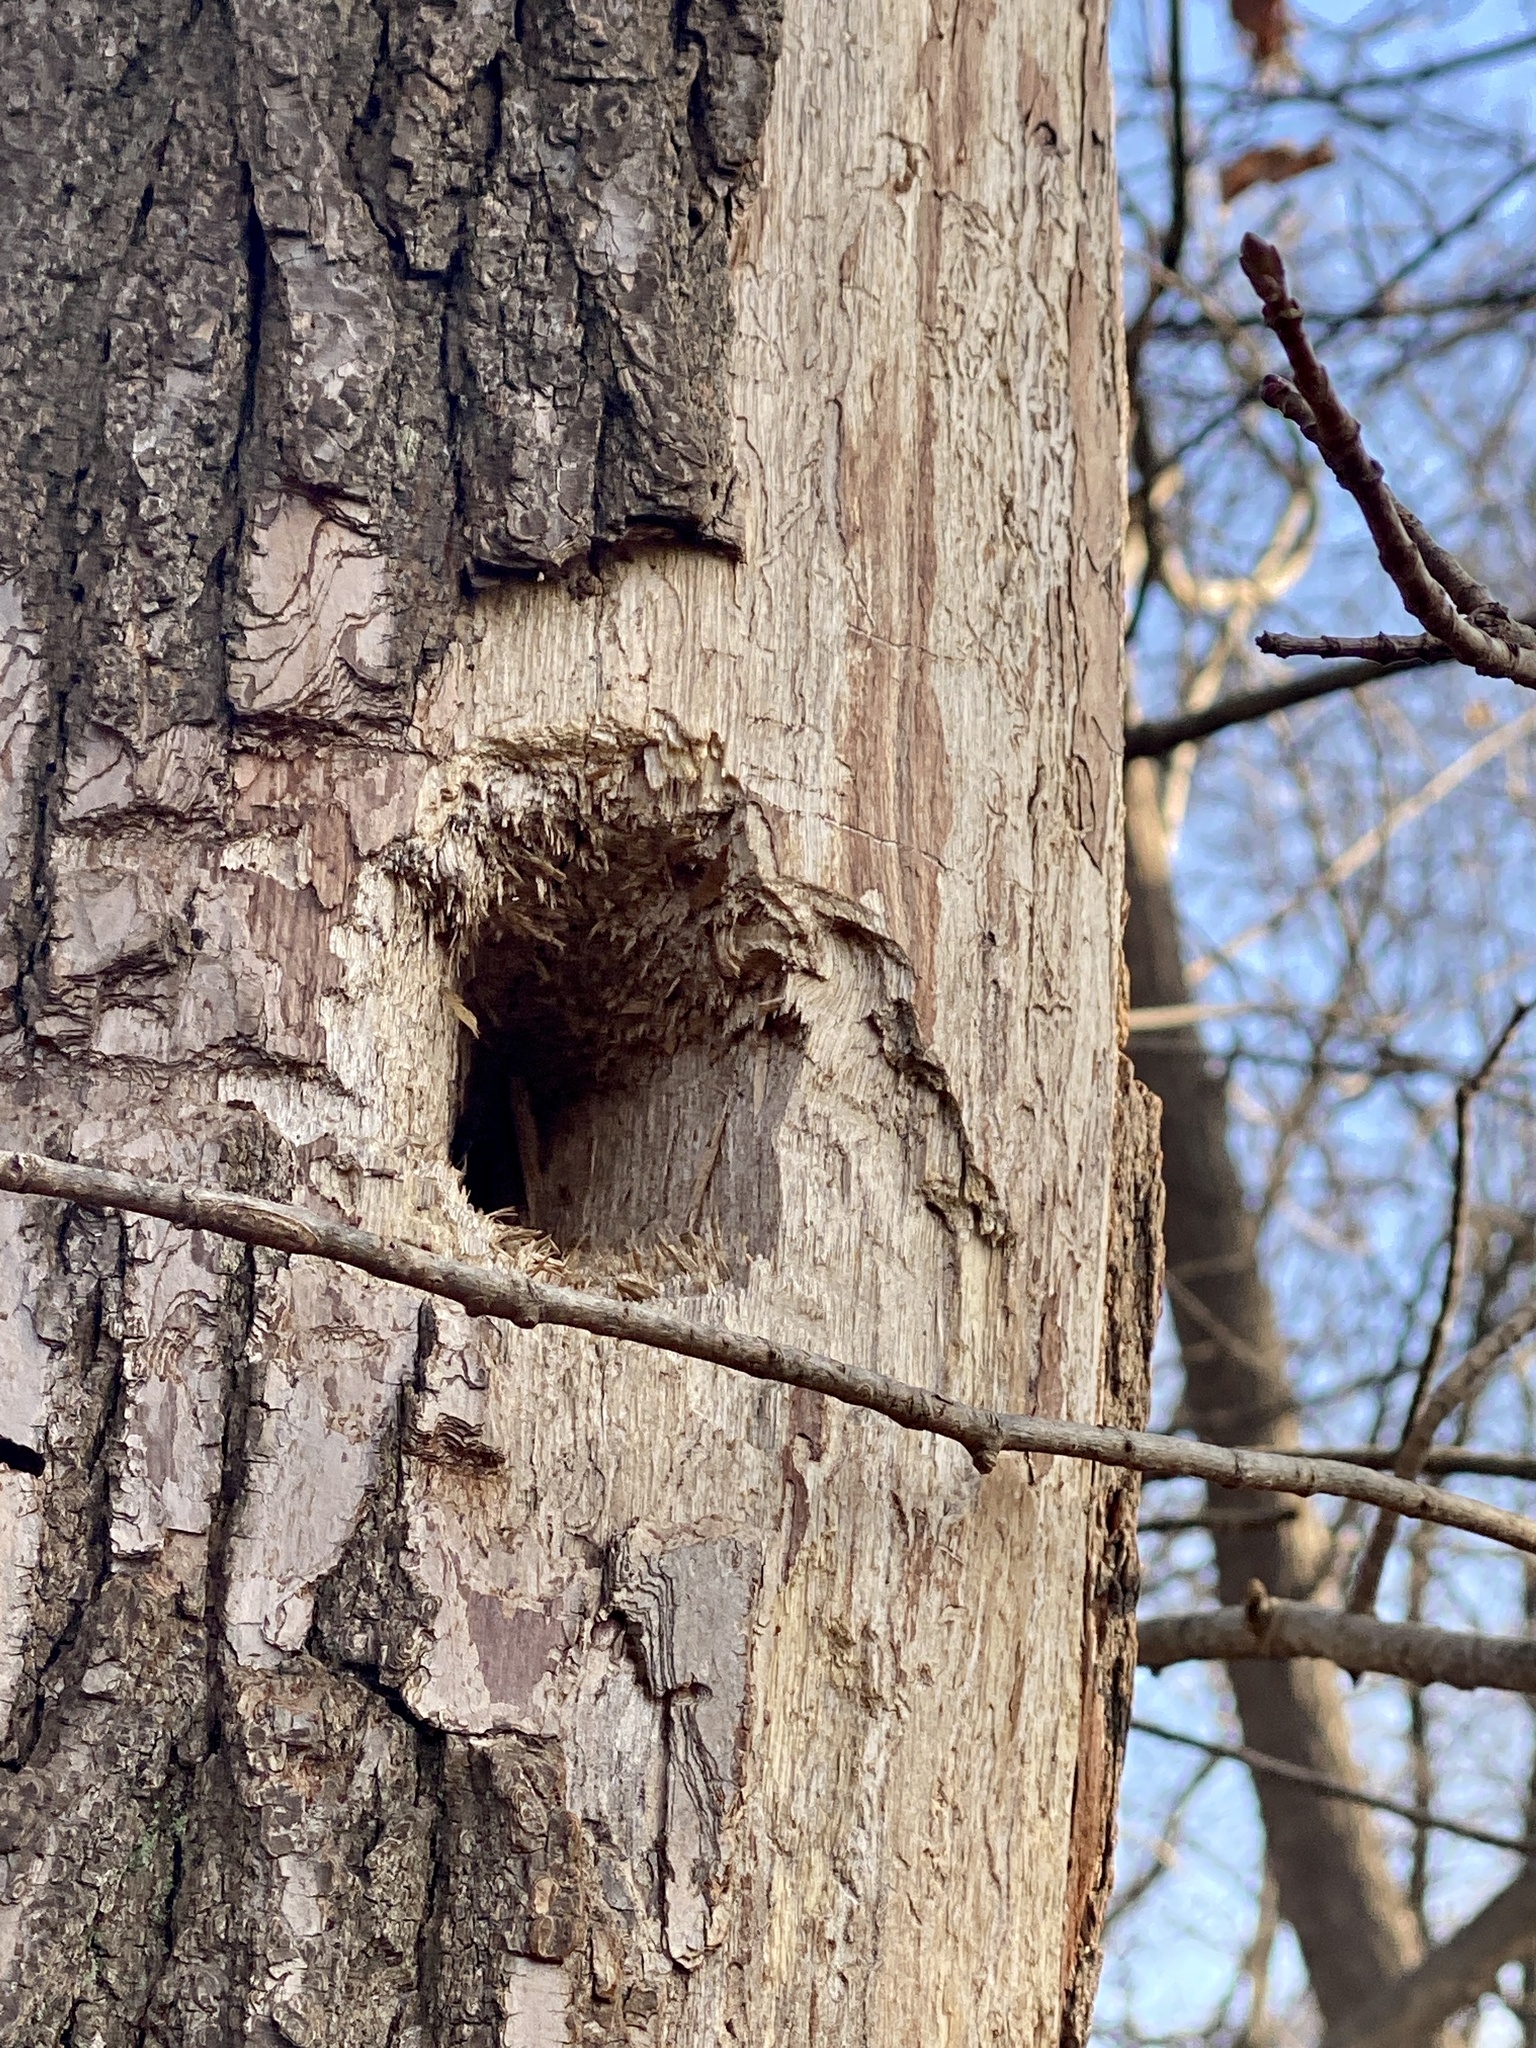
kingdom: Animalia
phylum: Chordata
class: Aves
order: Piciformes
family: Picidae
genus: Dryocopus
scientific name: Dryocopus pileatus
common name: Pileated woodpecker
